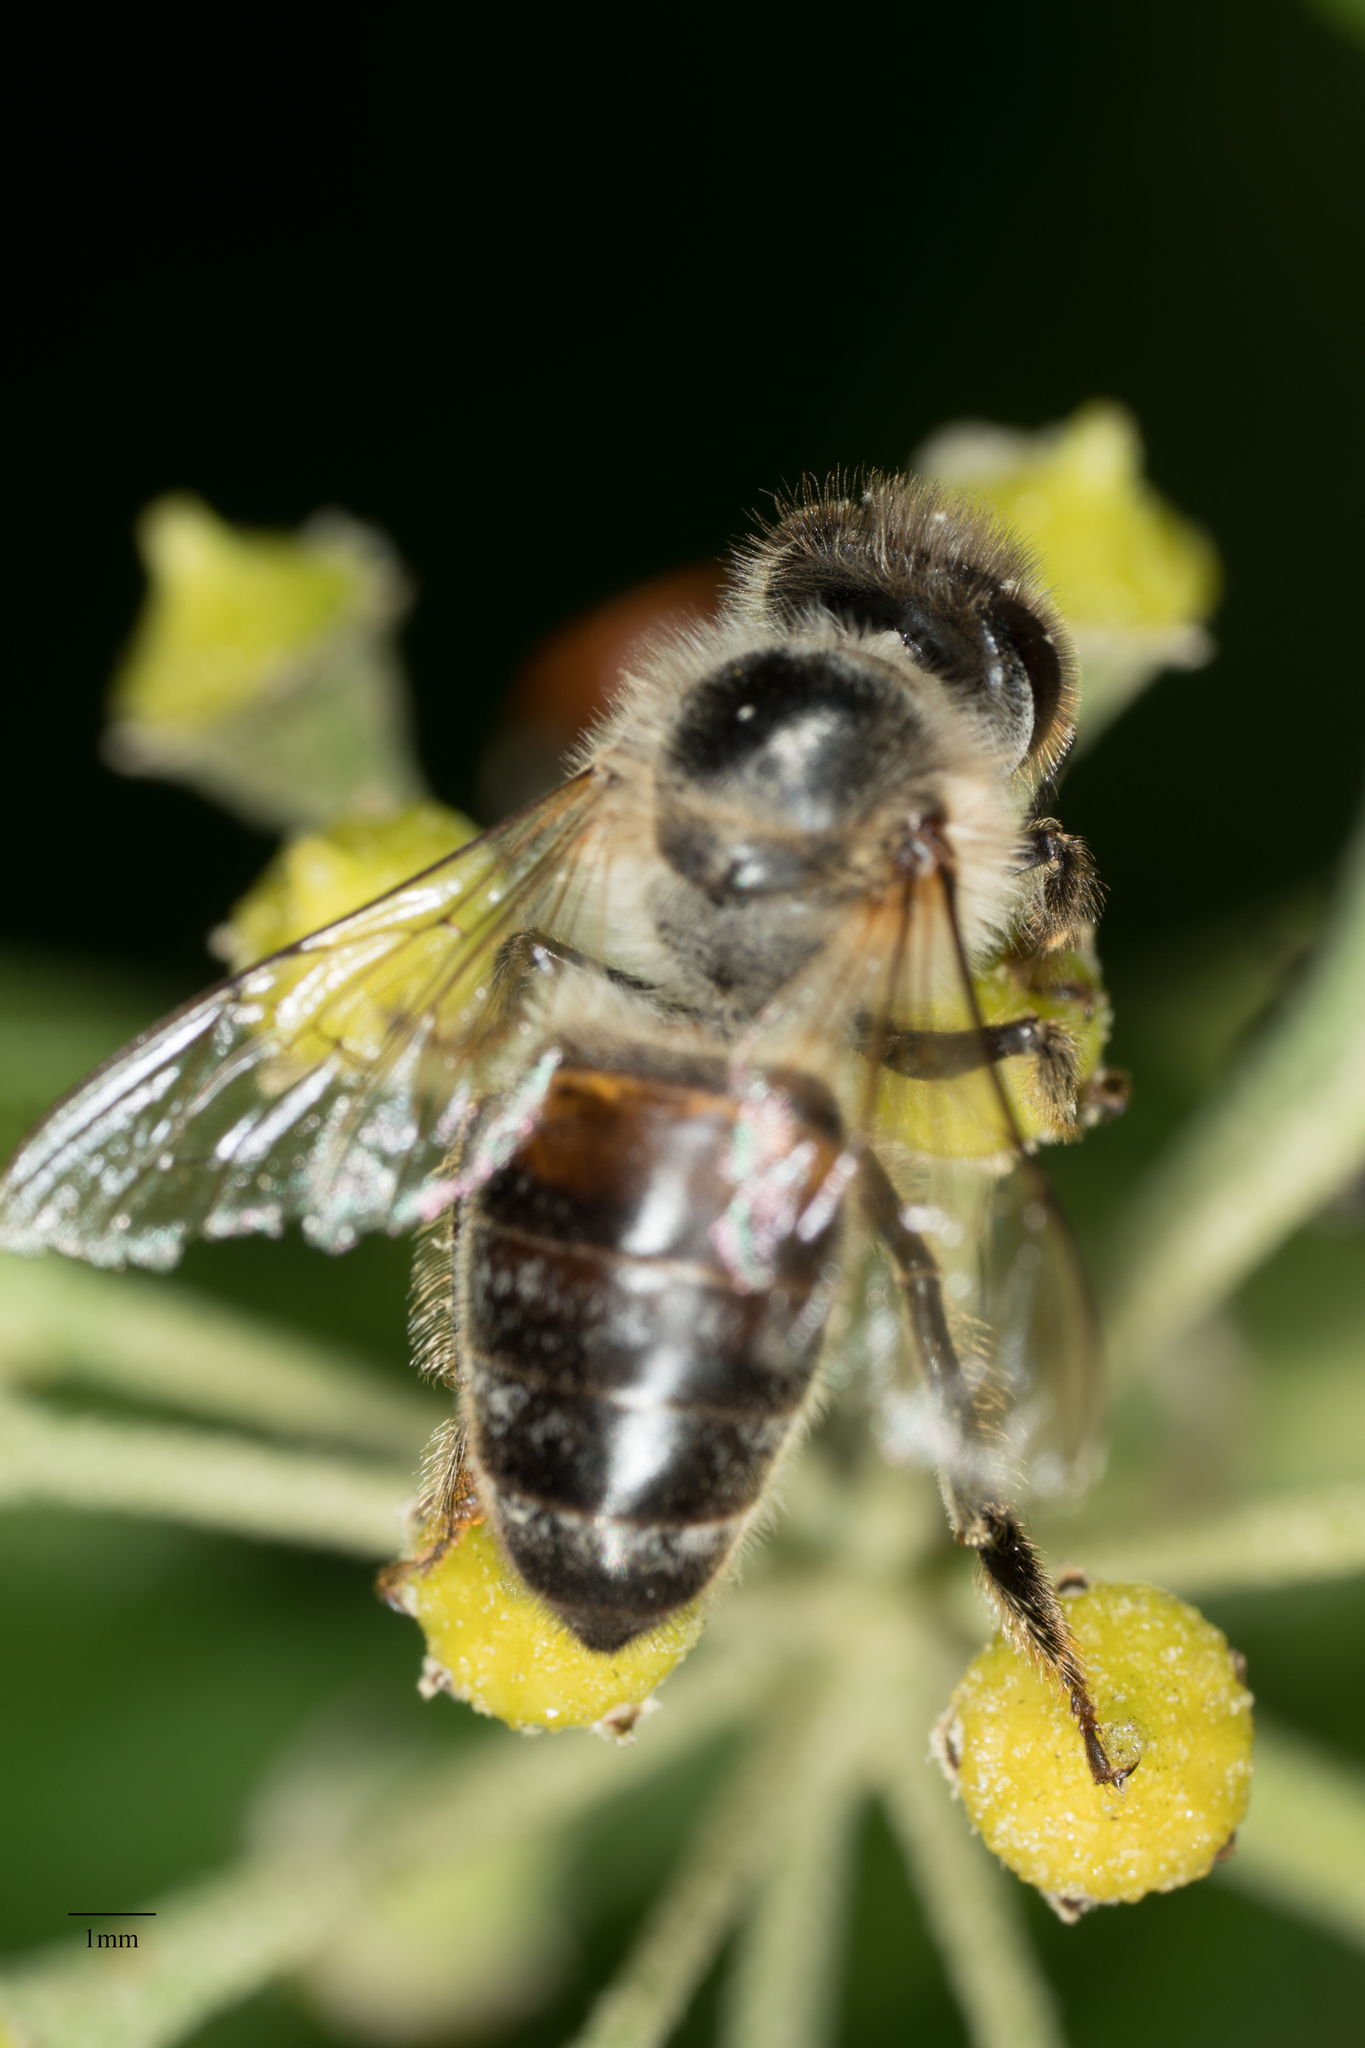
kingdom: Animalia
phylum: Arthropoda
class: Insecta
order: Hymenoptera
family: Apidae
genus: Apis
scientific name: Apis mellifera
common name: Honey bee
